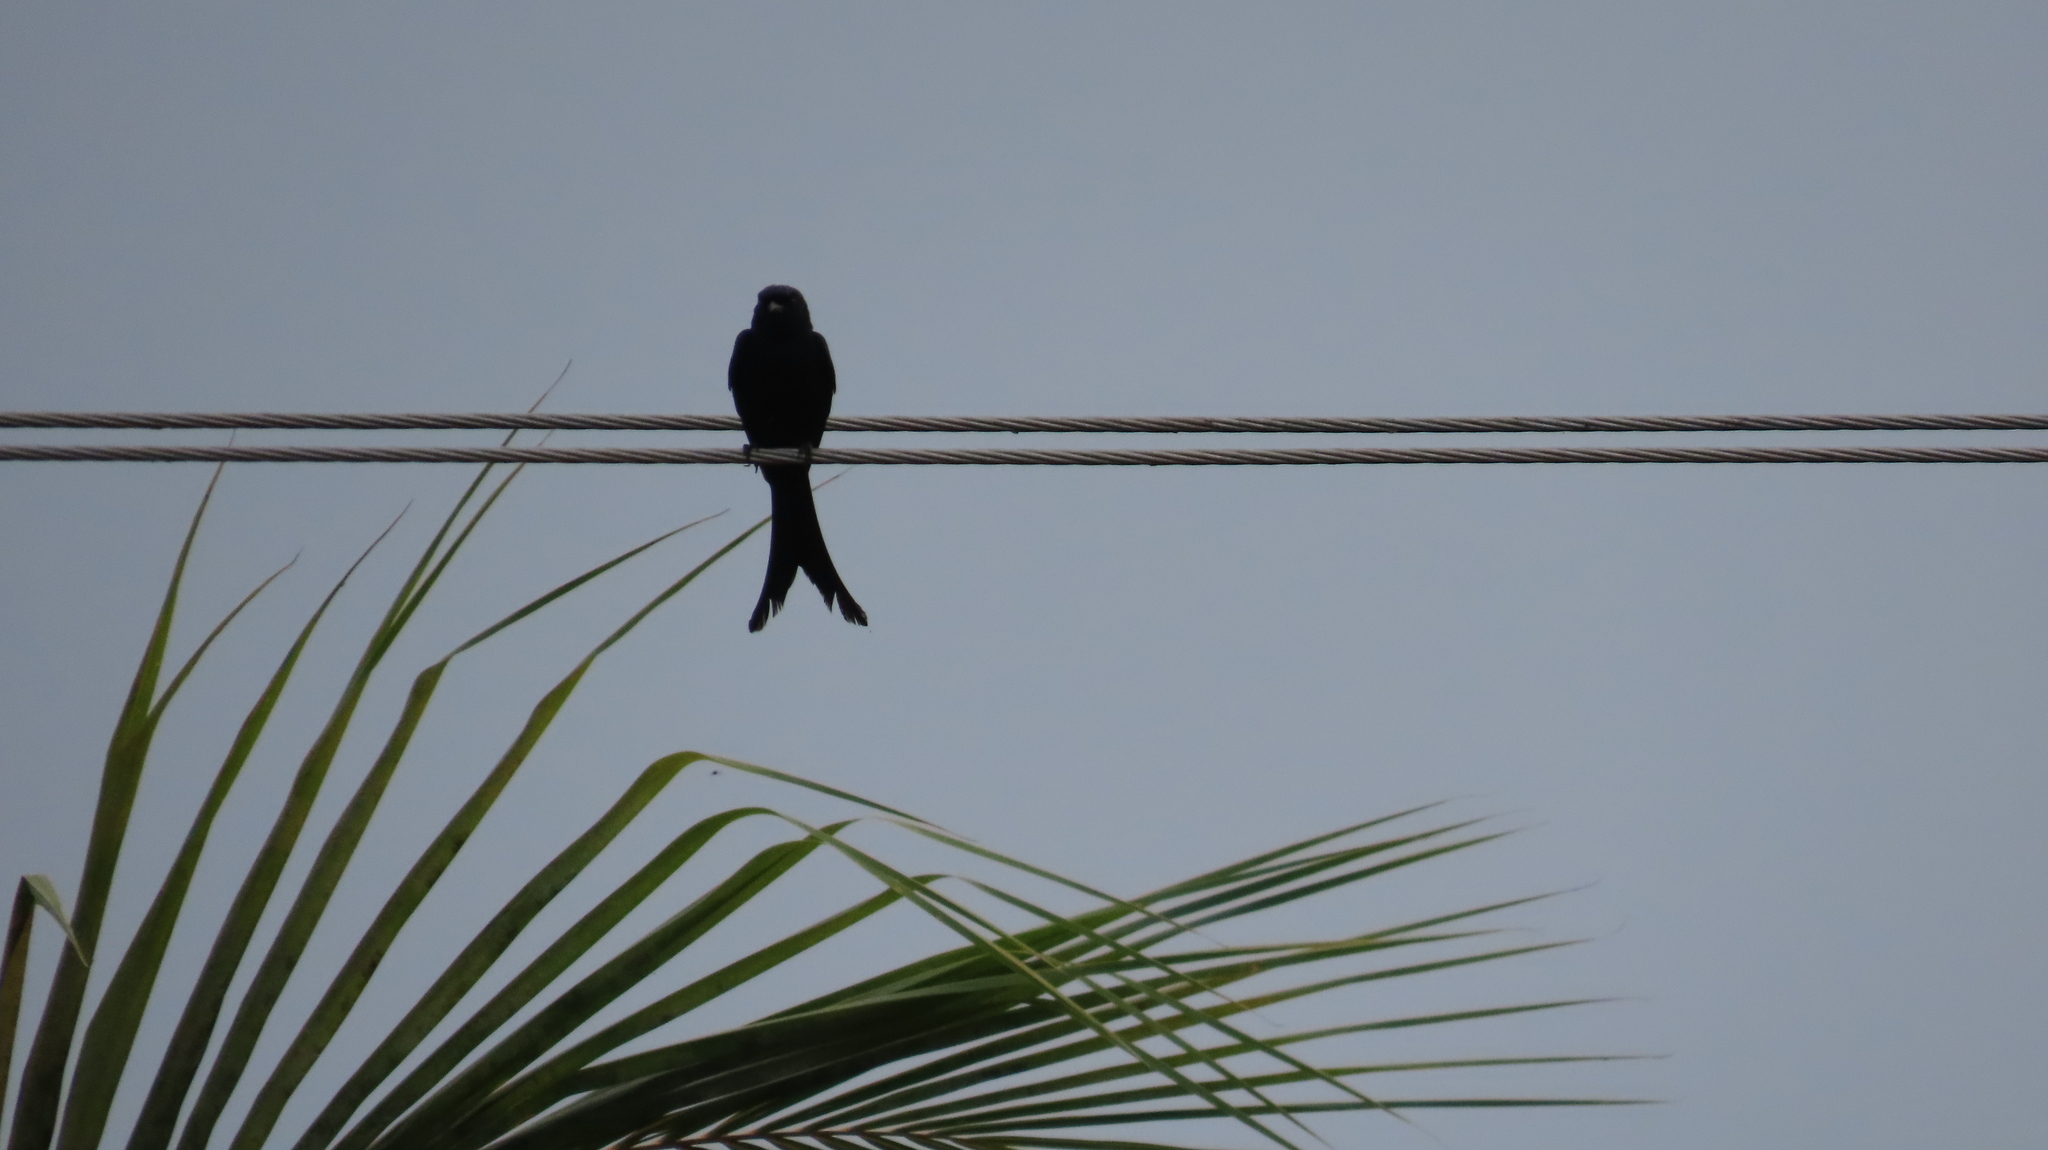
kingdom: Animalia
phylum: Chordata
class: Aves
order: Passeriformes
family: Dicruridae
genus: Dicrurus
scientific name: Dicrurus macrocercus
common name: Black drongo
